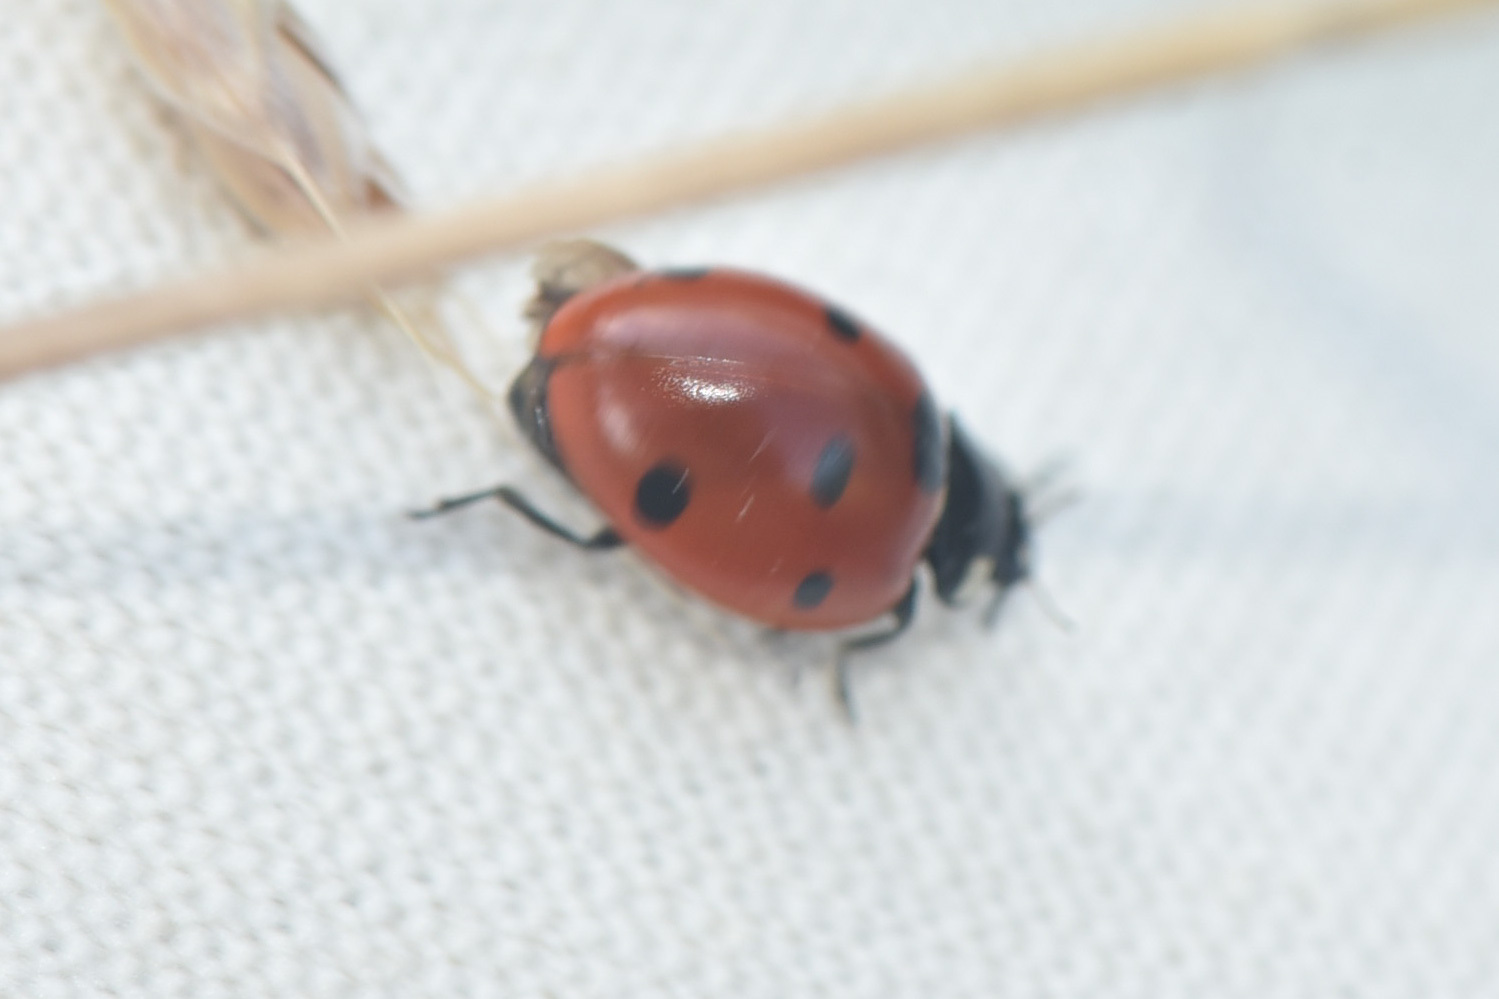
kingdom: Animalia
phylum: Arthropoda
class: Insecta
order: Coleoptera
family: Coccinellidae
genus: Coccinella
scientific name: Coccinella septempunctata
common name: Sevenspotted lady beetle
